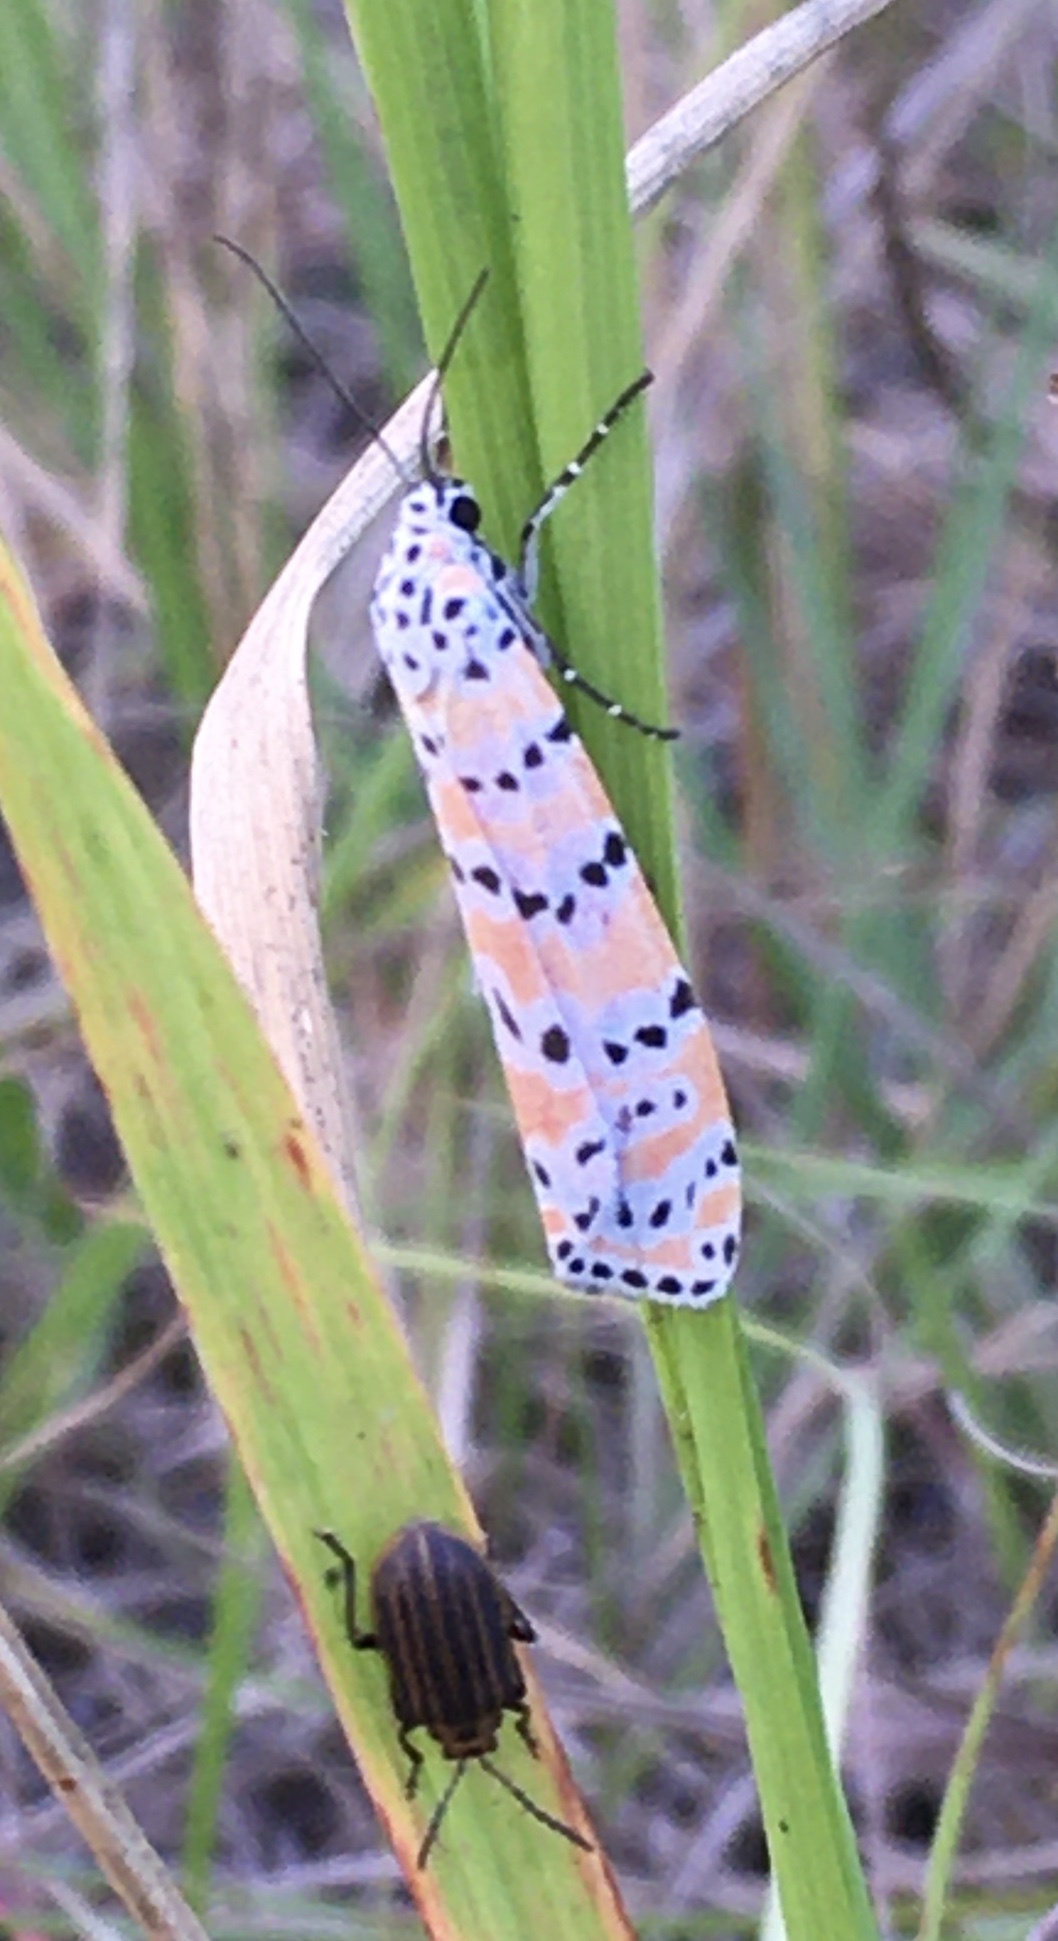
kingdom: Animalia
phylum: Arthropoda
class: Insecta
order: Lepidoptera
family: Erebidae
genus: Utetheisa
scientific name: Utetheisa ornatrix
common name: Beautiful utetheisa
